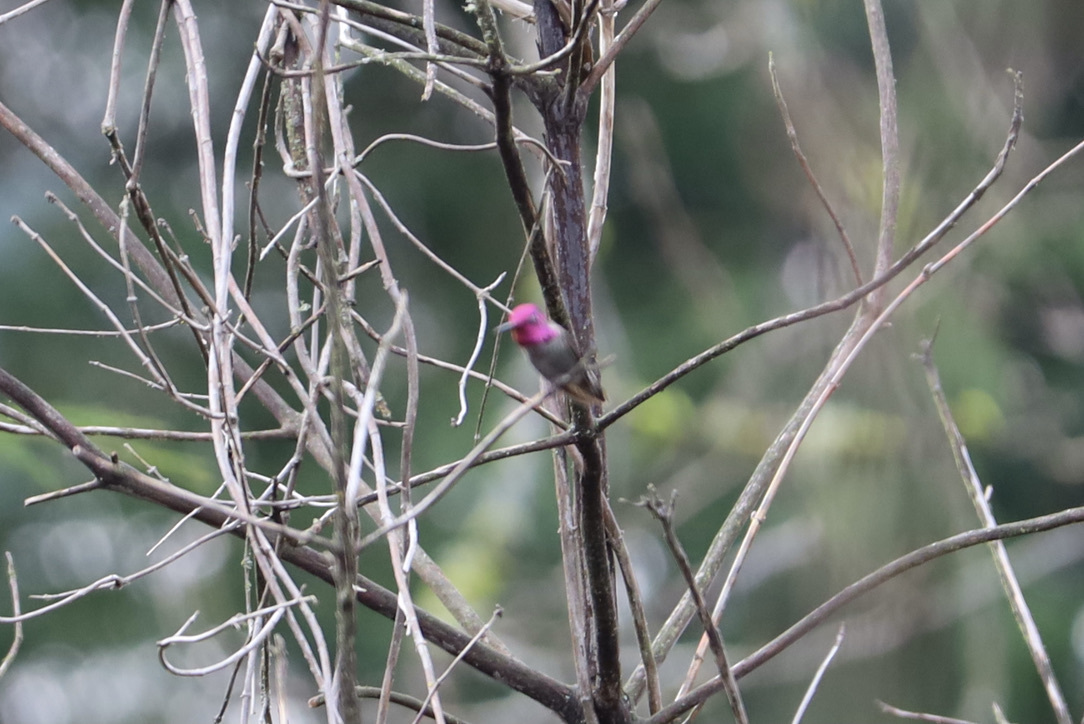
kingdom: Animalia
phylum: Chordata
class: Aves
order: Apodiformes
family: Trochilidae
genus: Calypte
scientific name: Calypte anna
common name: Anna's hummingbird
